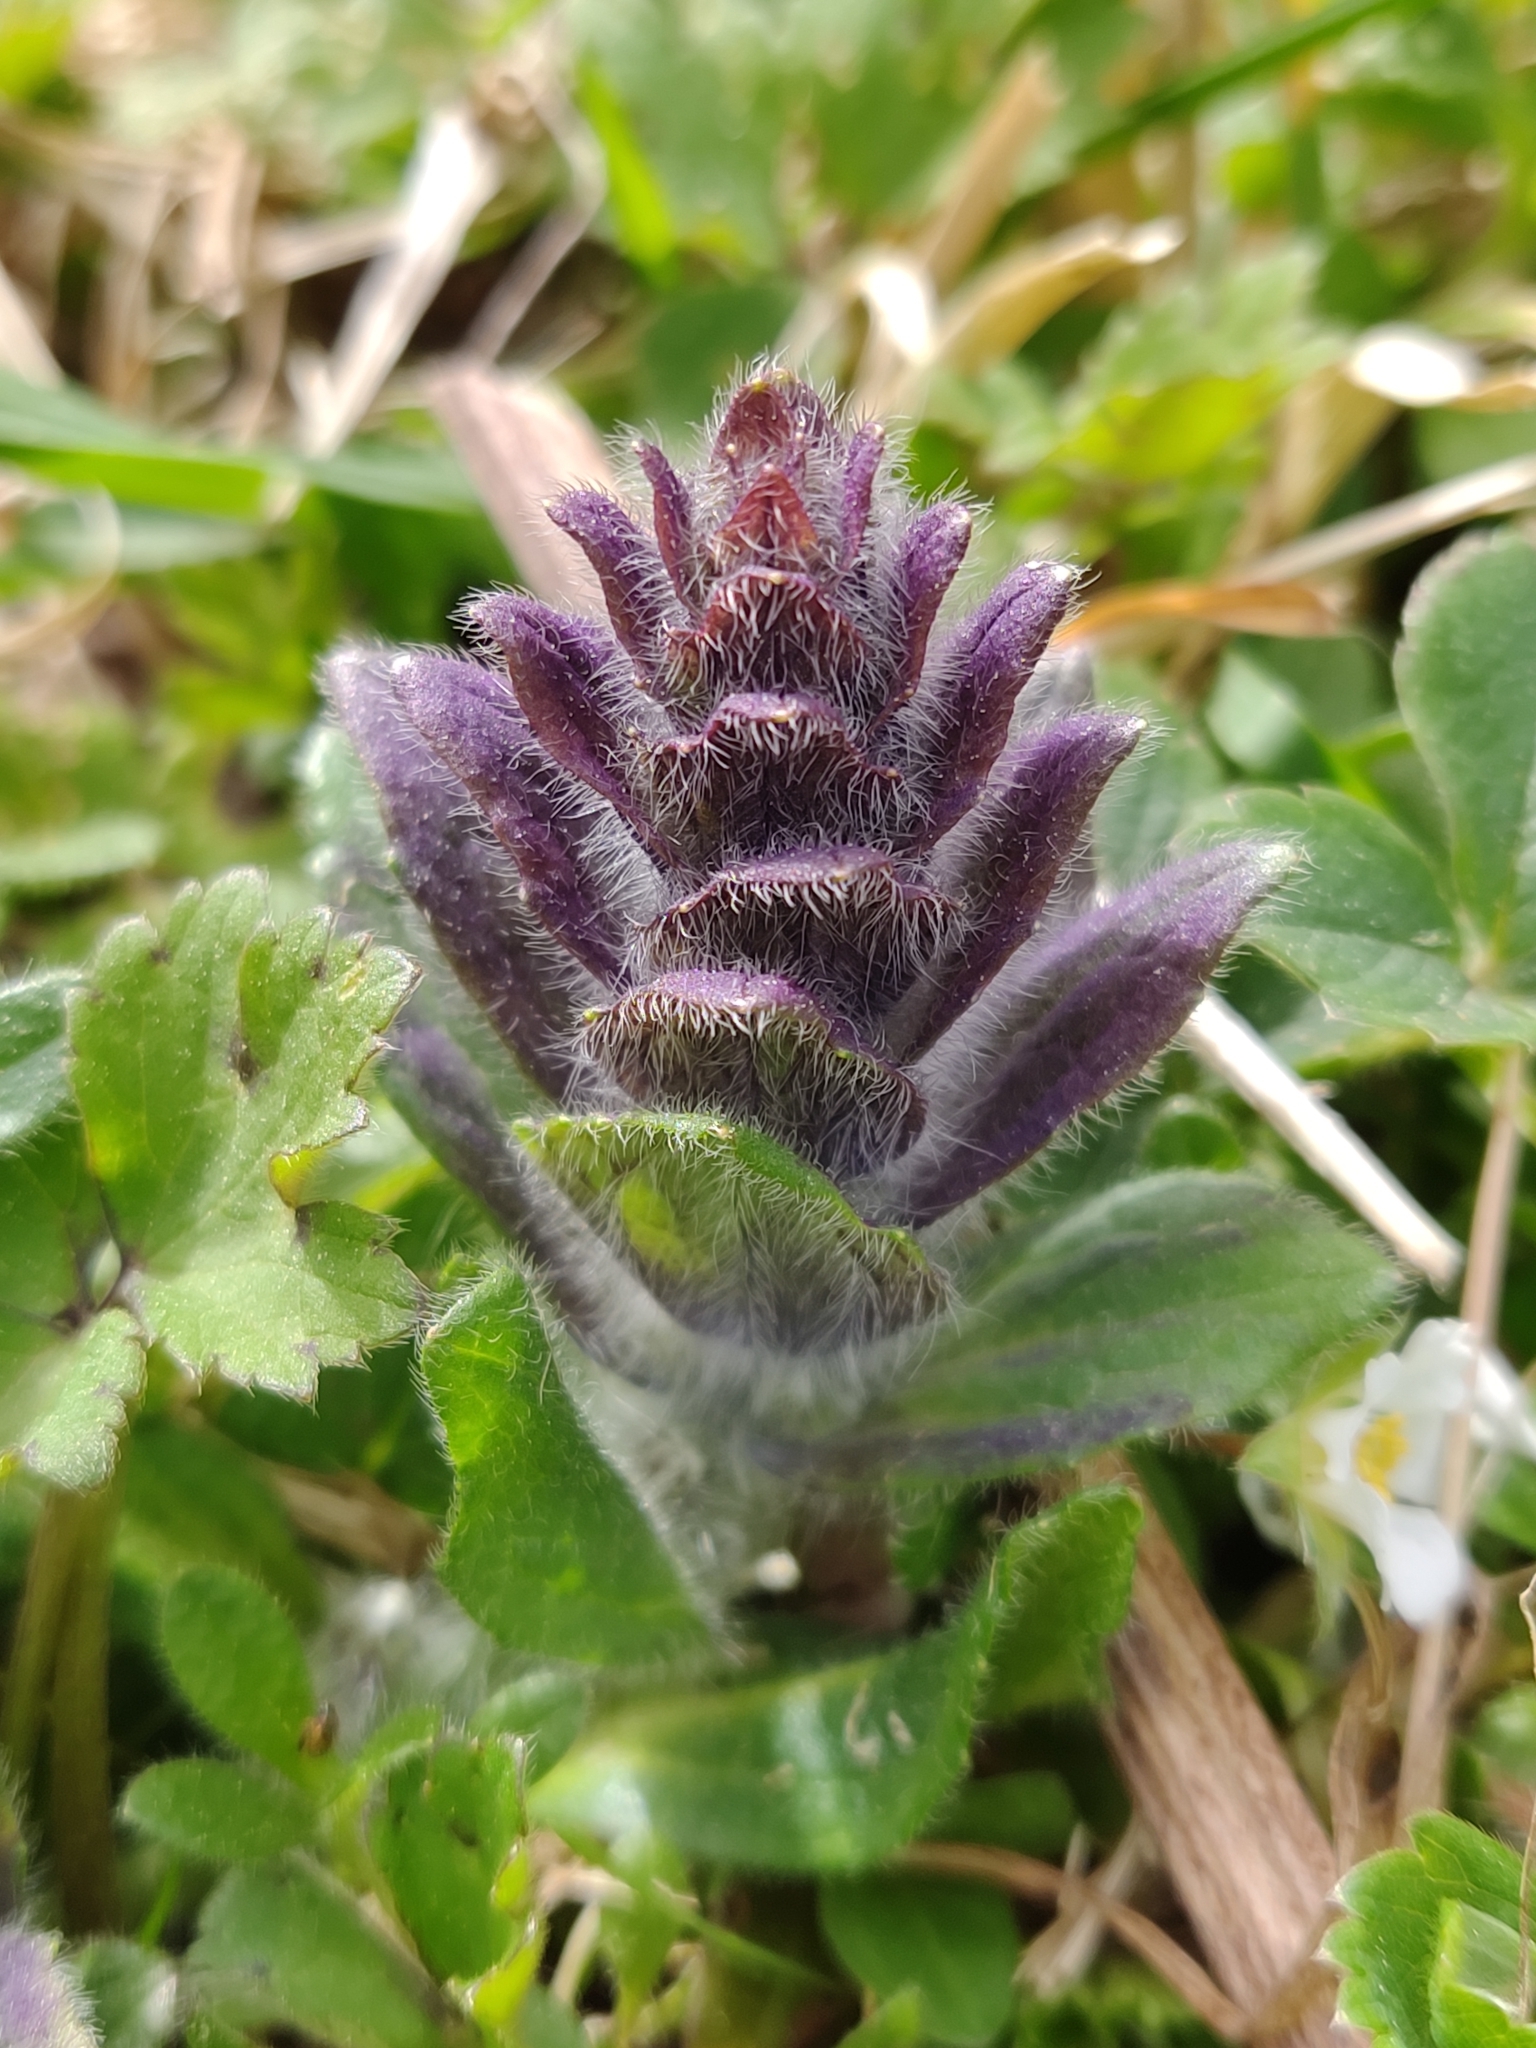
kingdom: Plantae
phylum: Tracheophyta
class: Magnoliopsida
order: Lamiales
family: Lamiaceae
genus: Ajuga
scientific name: Ajuga pyramidalis
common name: Pyramid bugle
